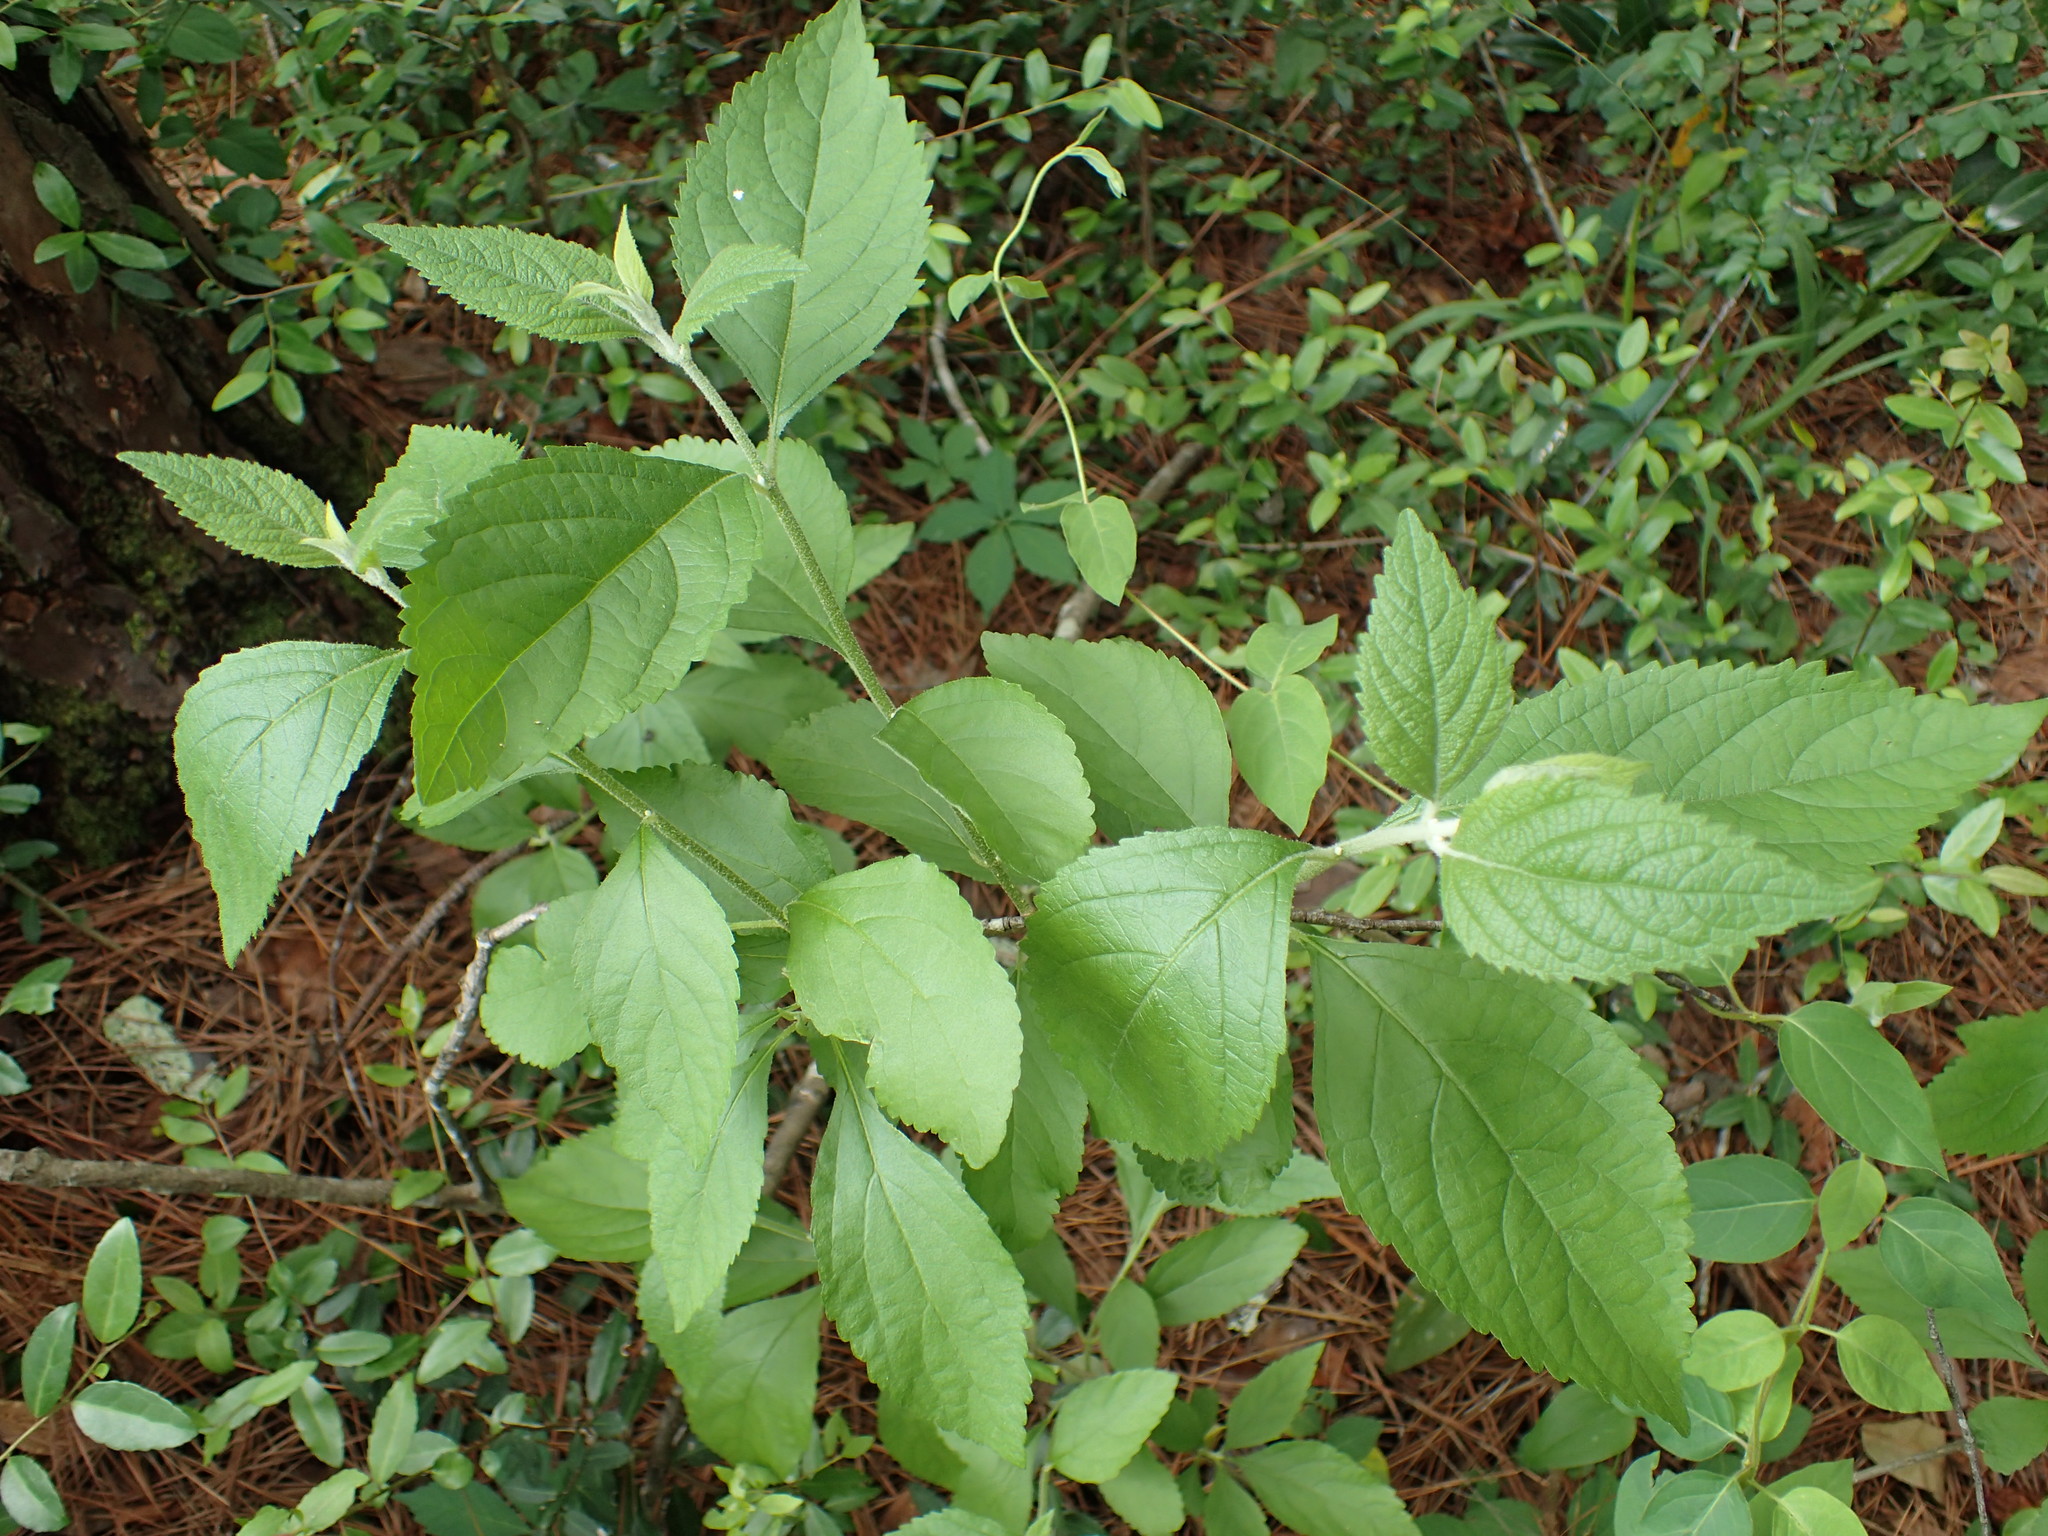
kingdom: Plantae
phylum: Tracheophyta
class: Magnoliopsida
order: Lamiales
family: Lamiaceae
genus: Callicarpa
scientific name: Callicarpa americana
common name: American beautyberry
